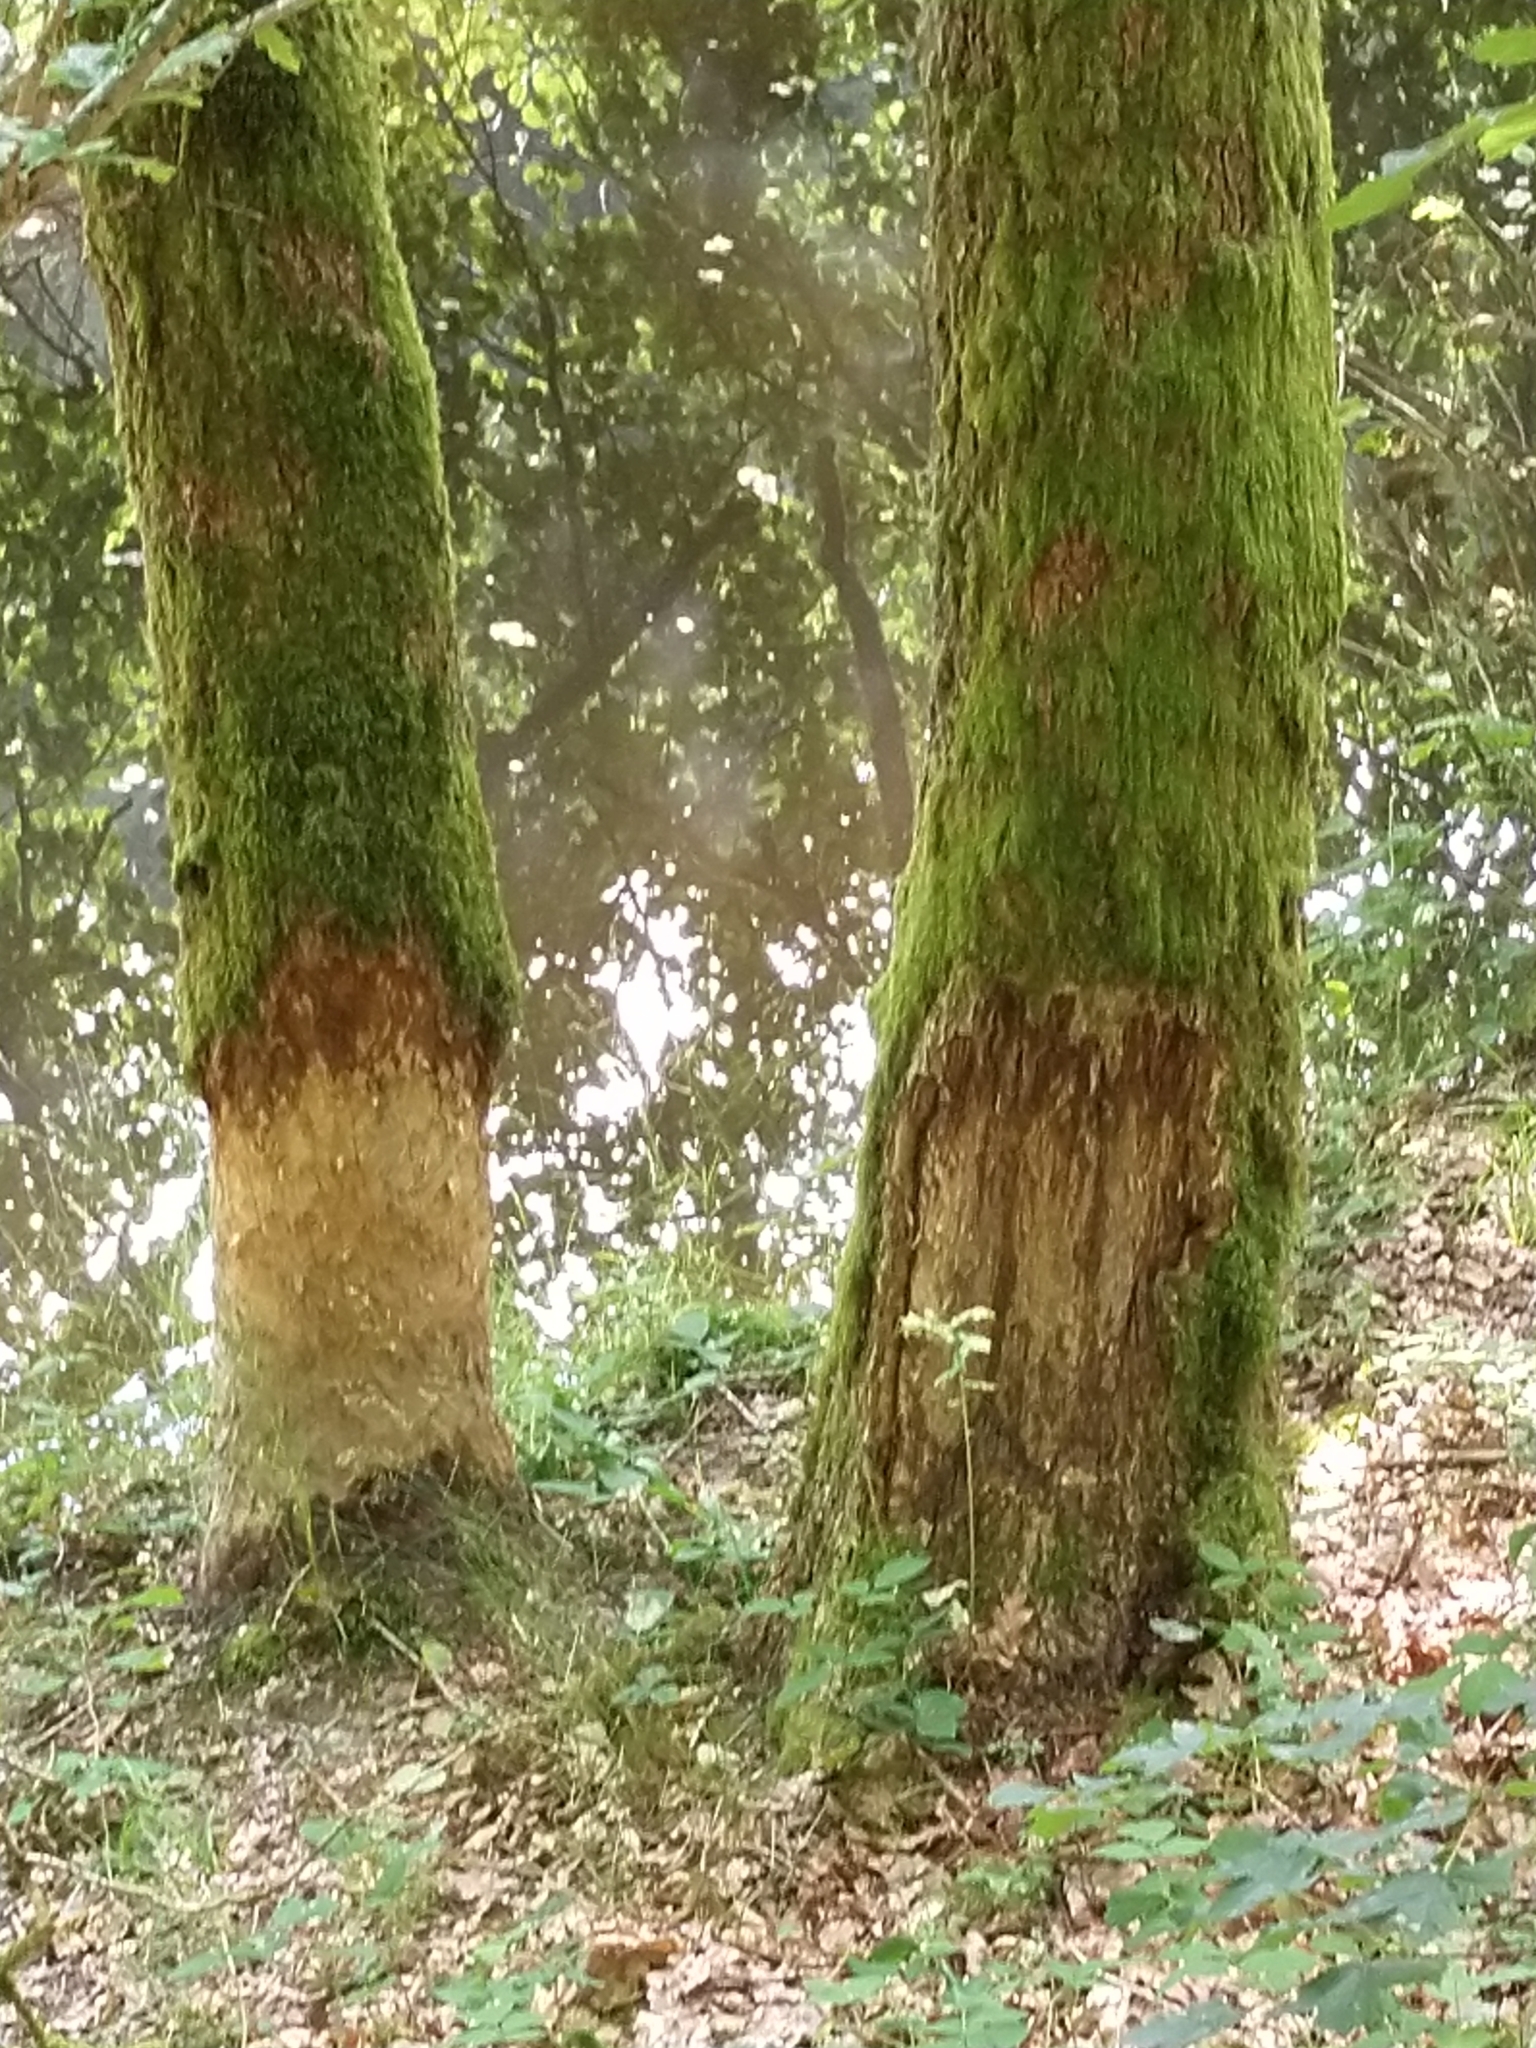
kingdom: Animalia
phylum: Chordata
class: Mammalia
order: Rodentia
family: Castoridae
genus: Castor
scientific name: Castor fiber
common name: Eurasian beaver
